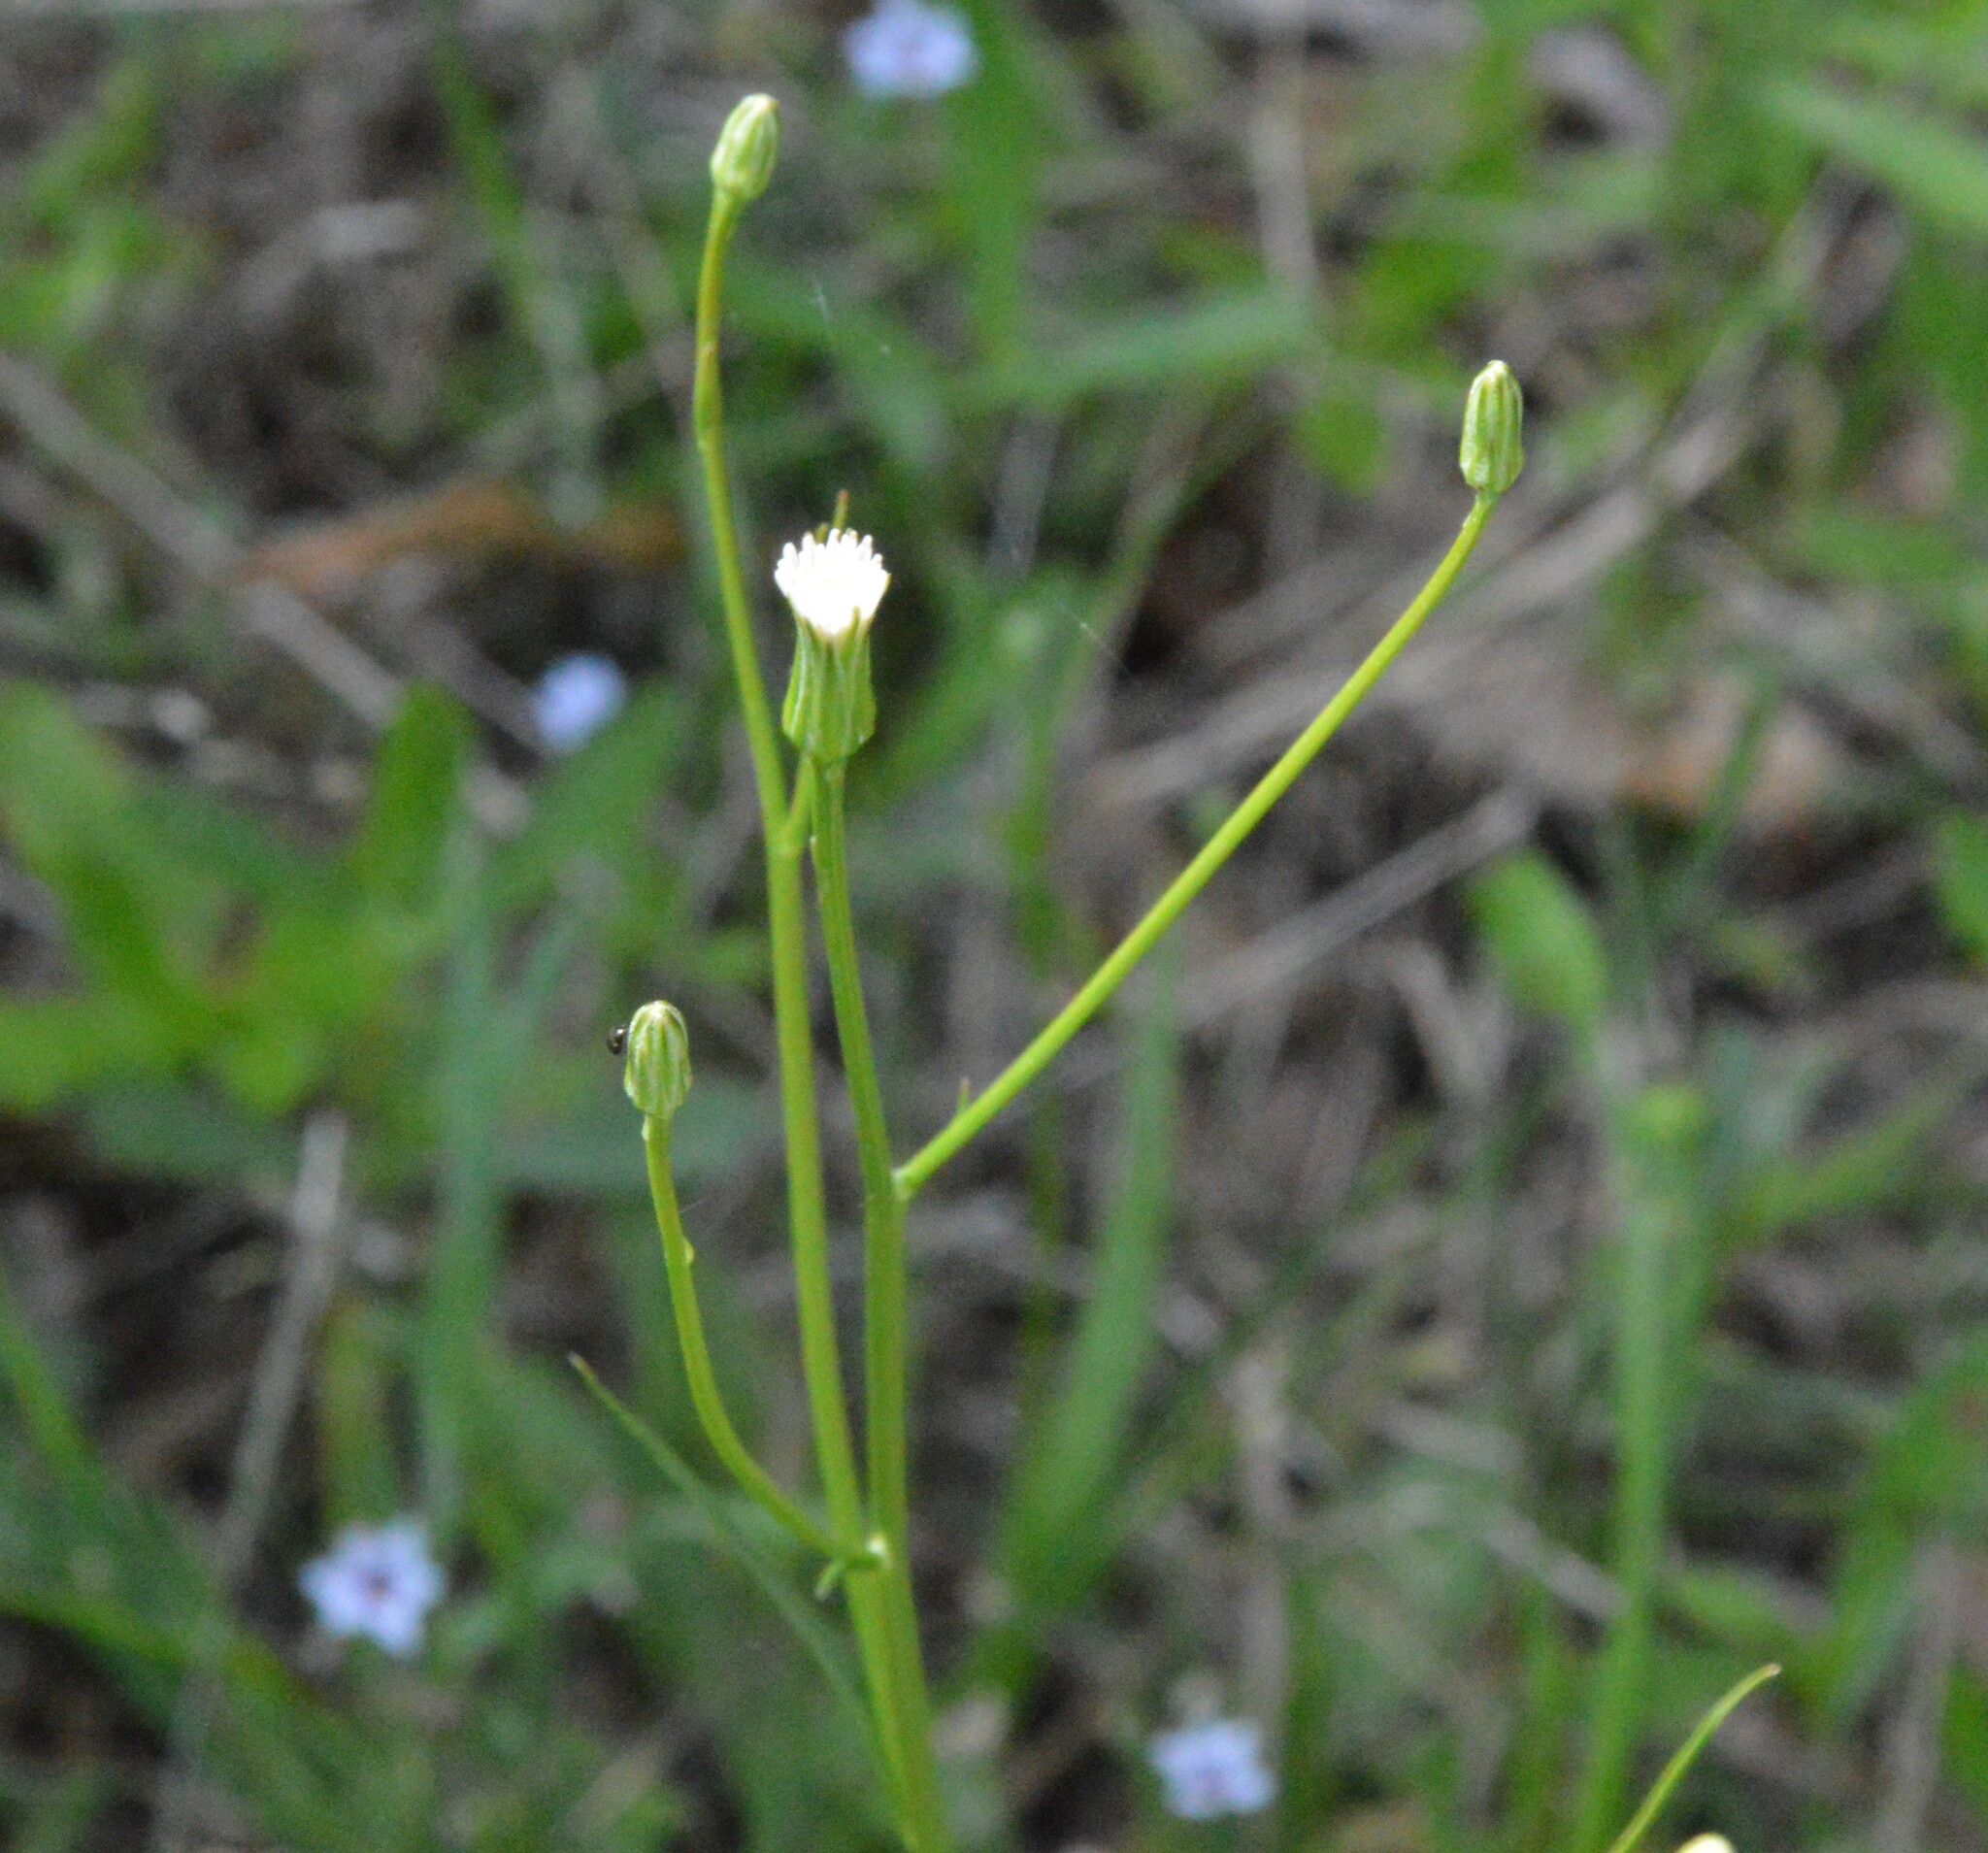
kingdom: Plantae
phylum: Tracheophyta
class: Magnoliopsida
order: Asterales
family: Asteraceae
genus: Hypochaeris
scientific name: Hypochaeris albiflora
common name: White flatweed
